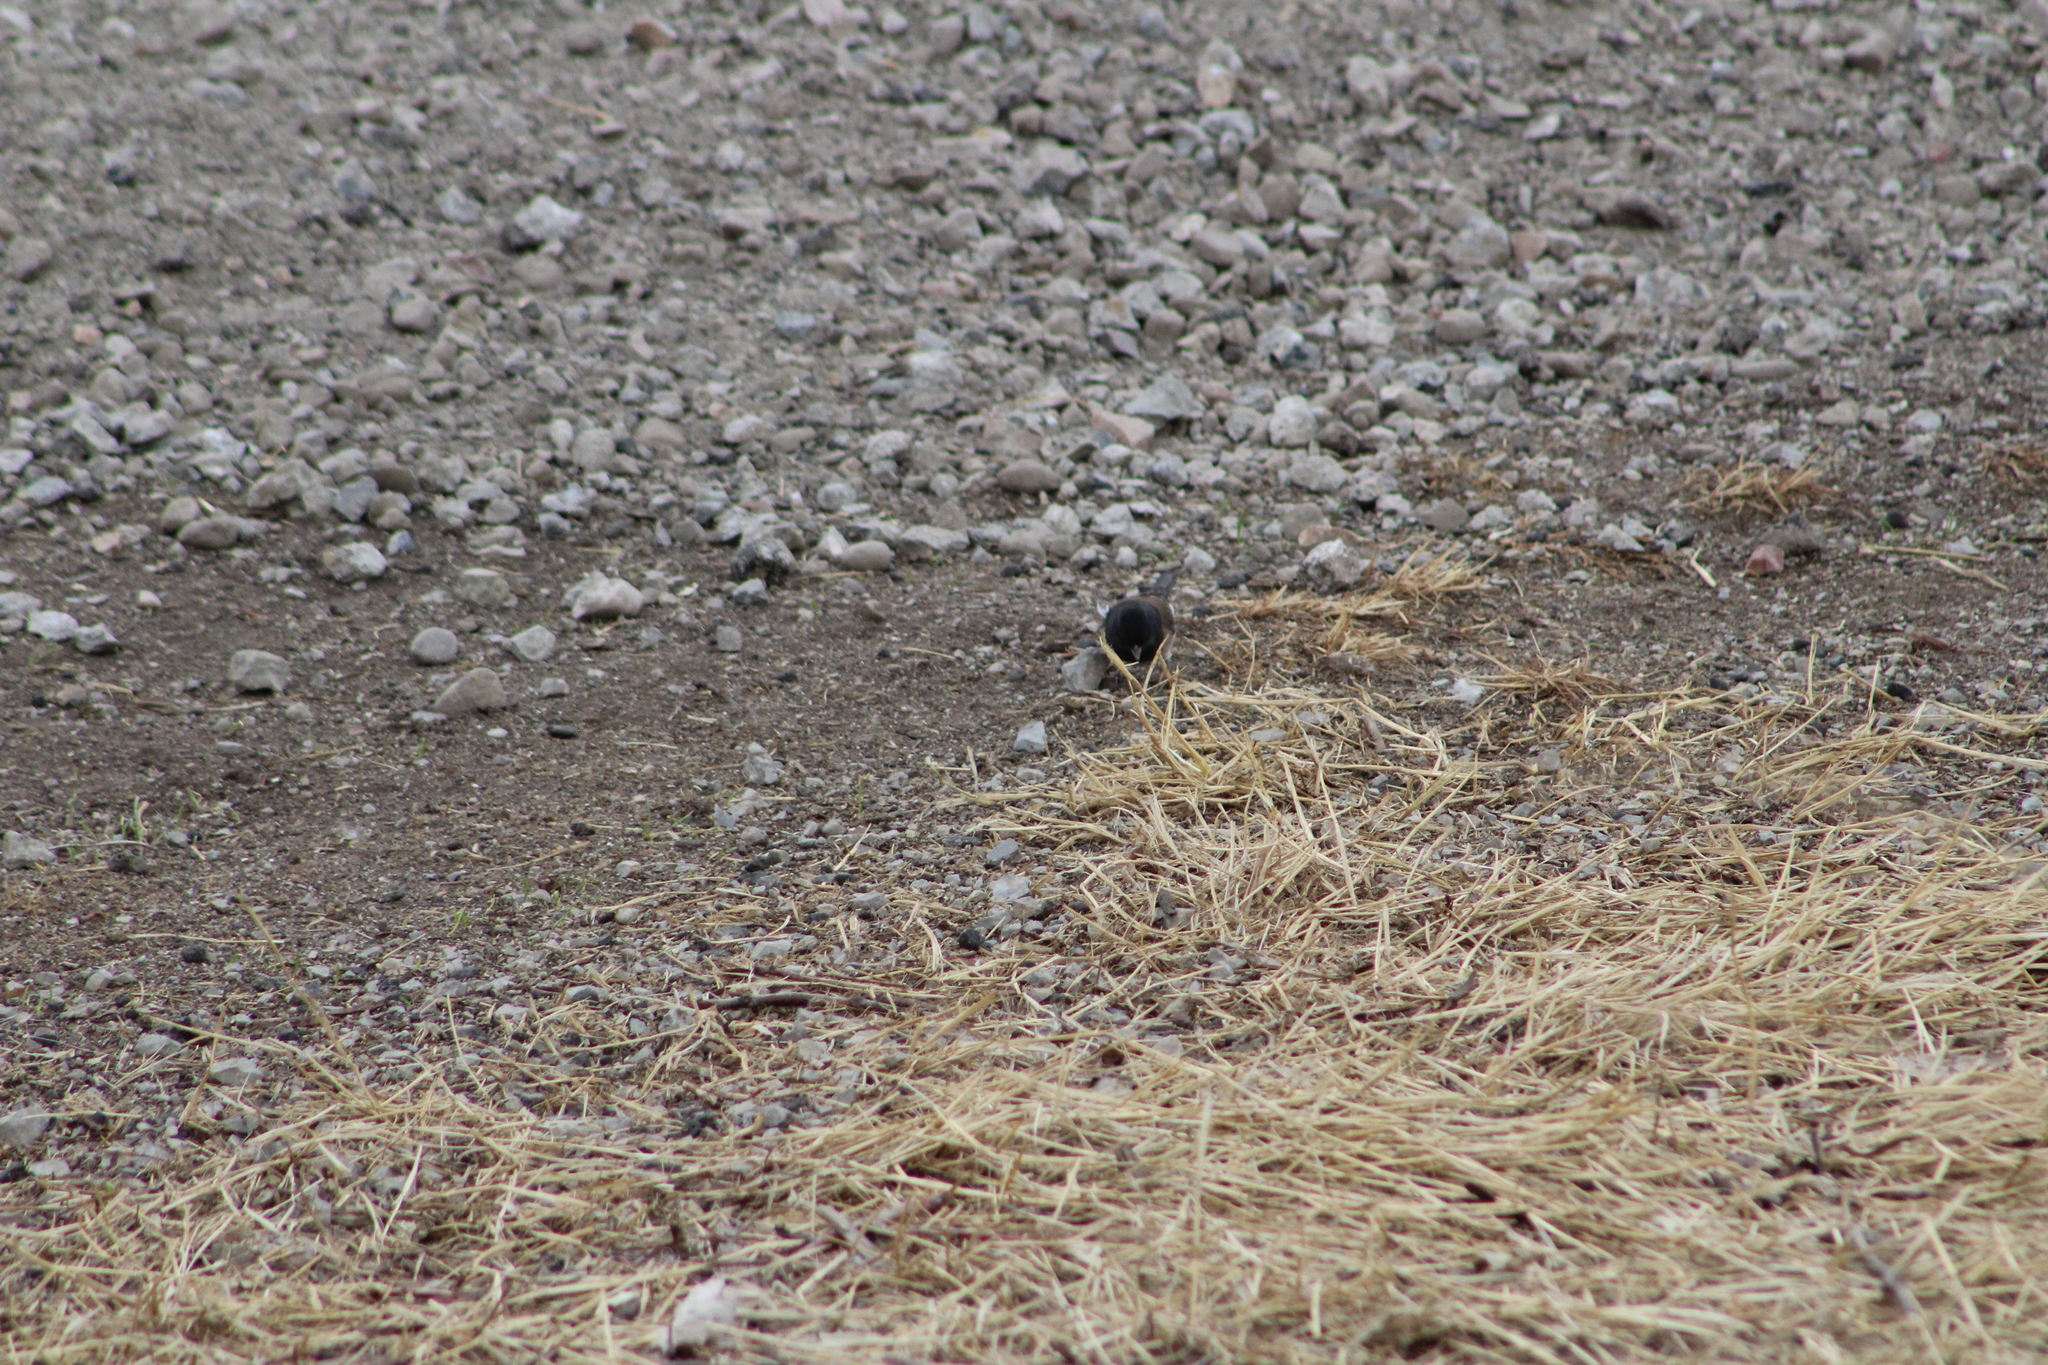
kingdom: Animalia
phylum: Chordata
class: Aves
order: Passeriformes
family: Passerellidae
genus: Junco
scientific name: Junco hyemalis
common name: Dark-eyed junco
